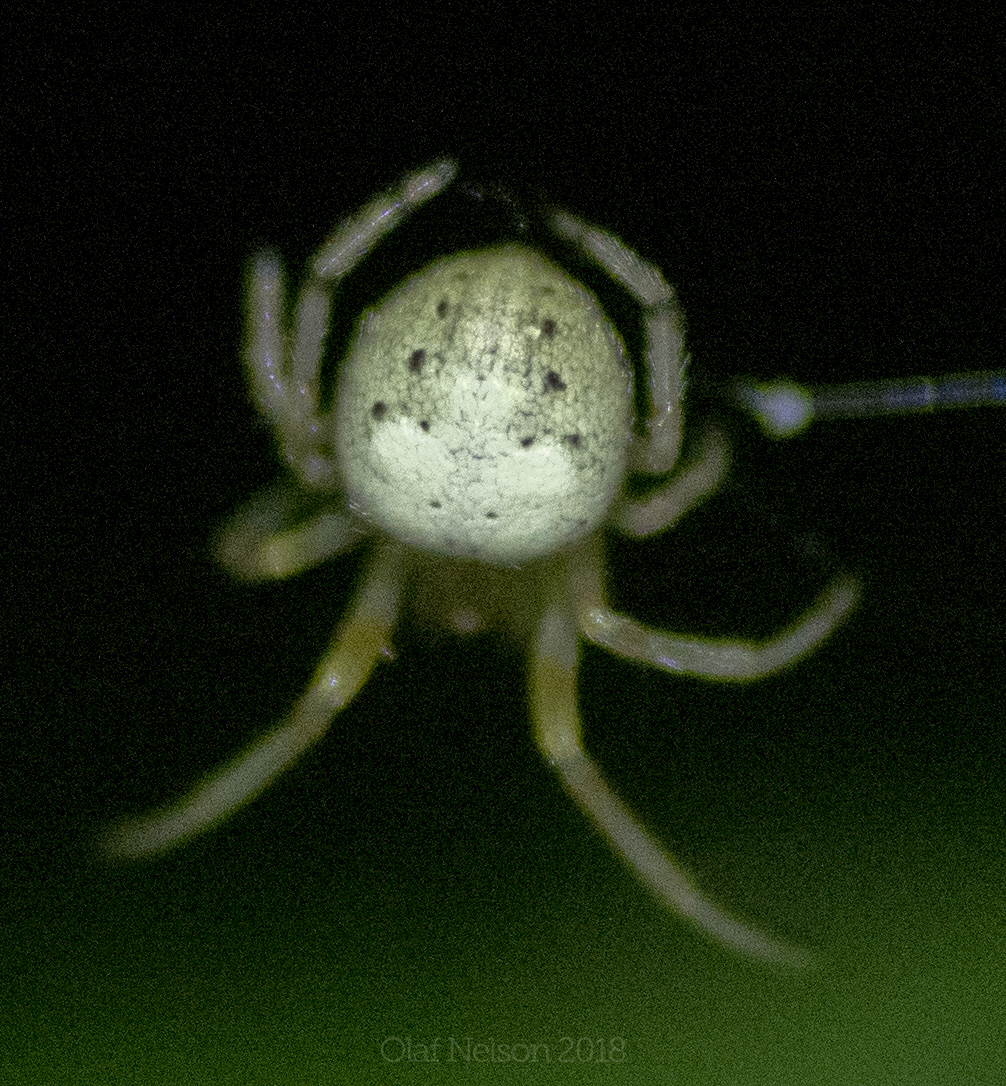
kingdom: Animalia
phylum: Arthropoda
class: Arachnida
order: Araneae
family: Araneidae
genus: Araneus
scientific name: Araneus thaddeus
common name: Lattice orbweaver
